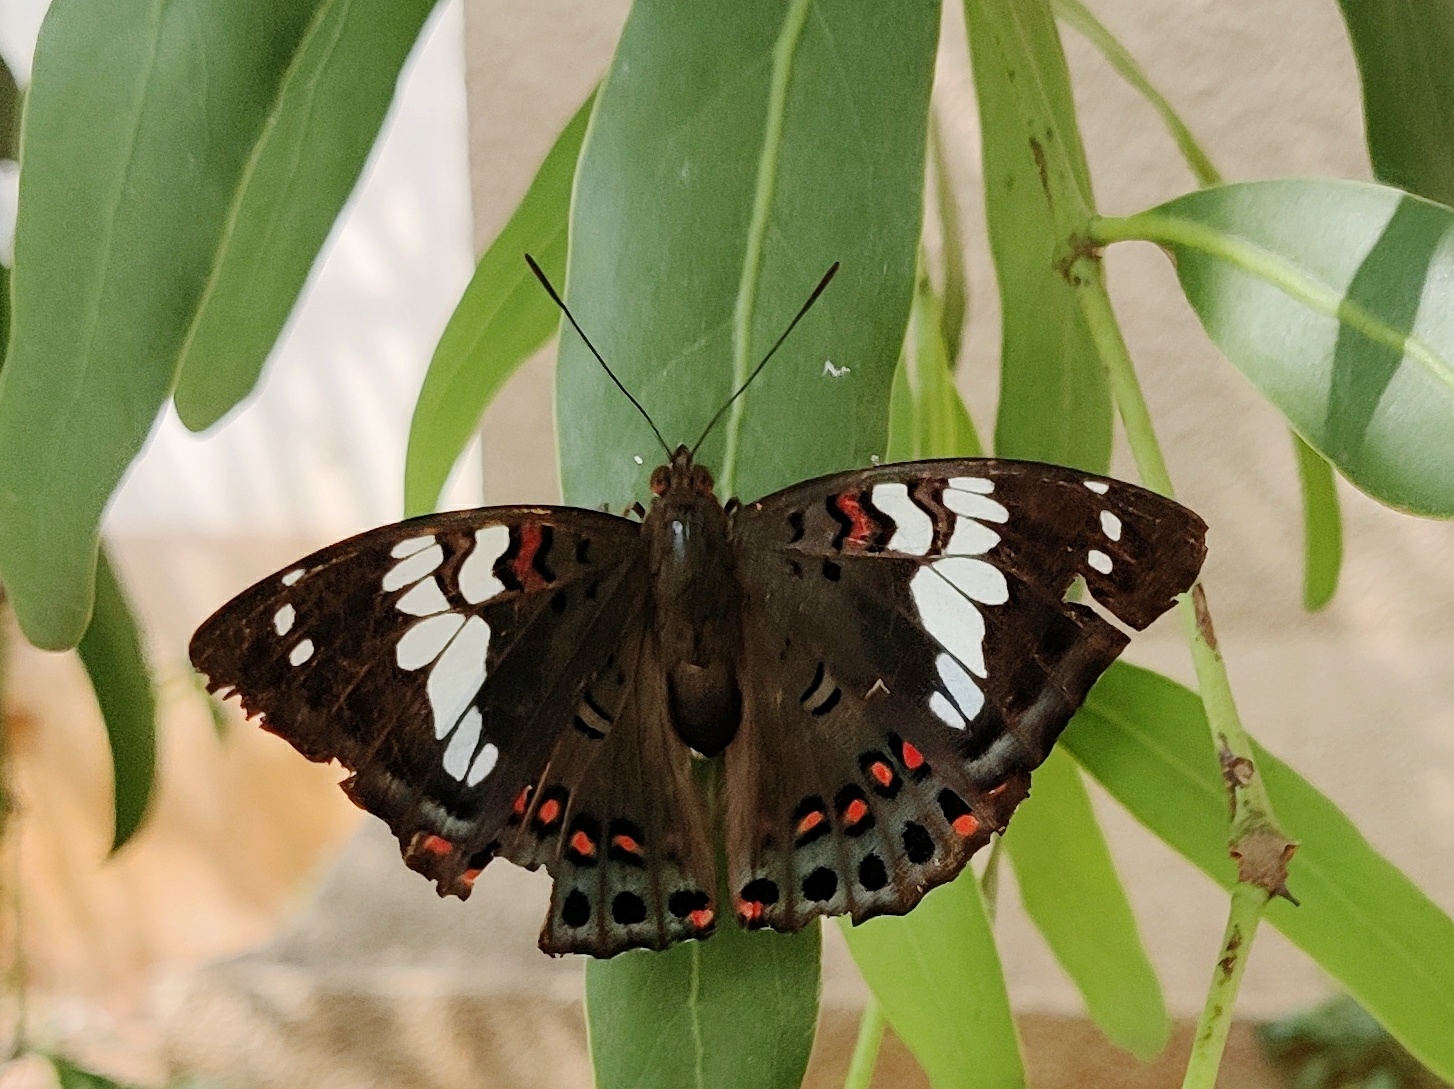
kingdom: Animalia
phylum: Arthropoda
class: Insecta
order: Lepidoptera
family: Nymphalidae
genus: Euthalia
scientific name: Euthalia lubentina
